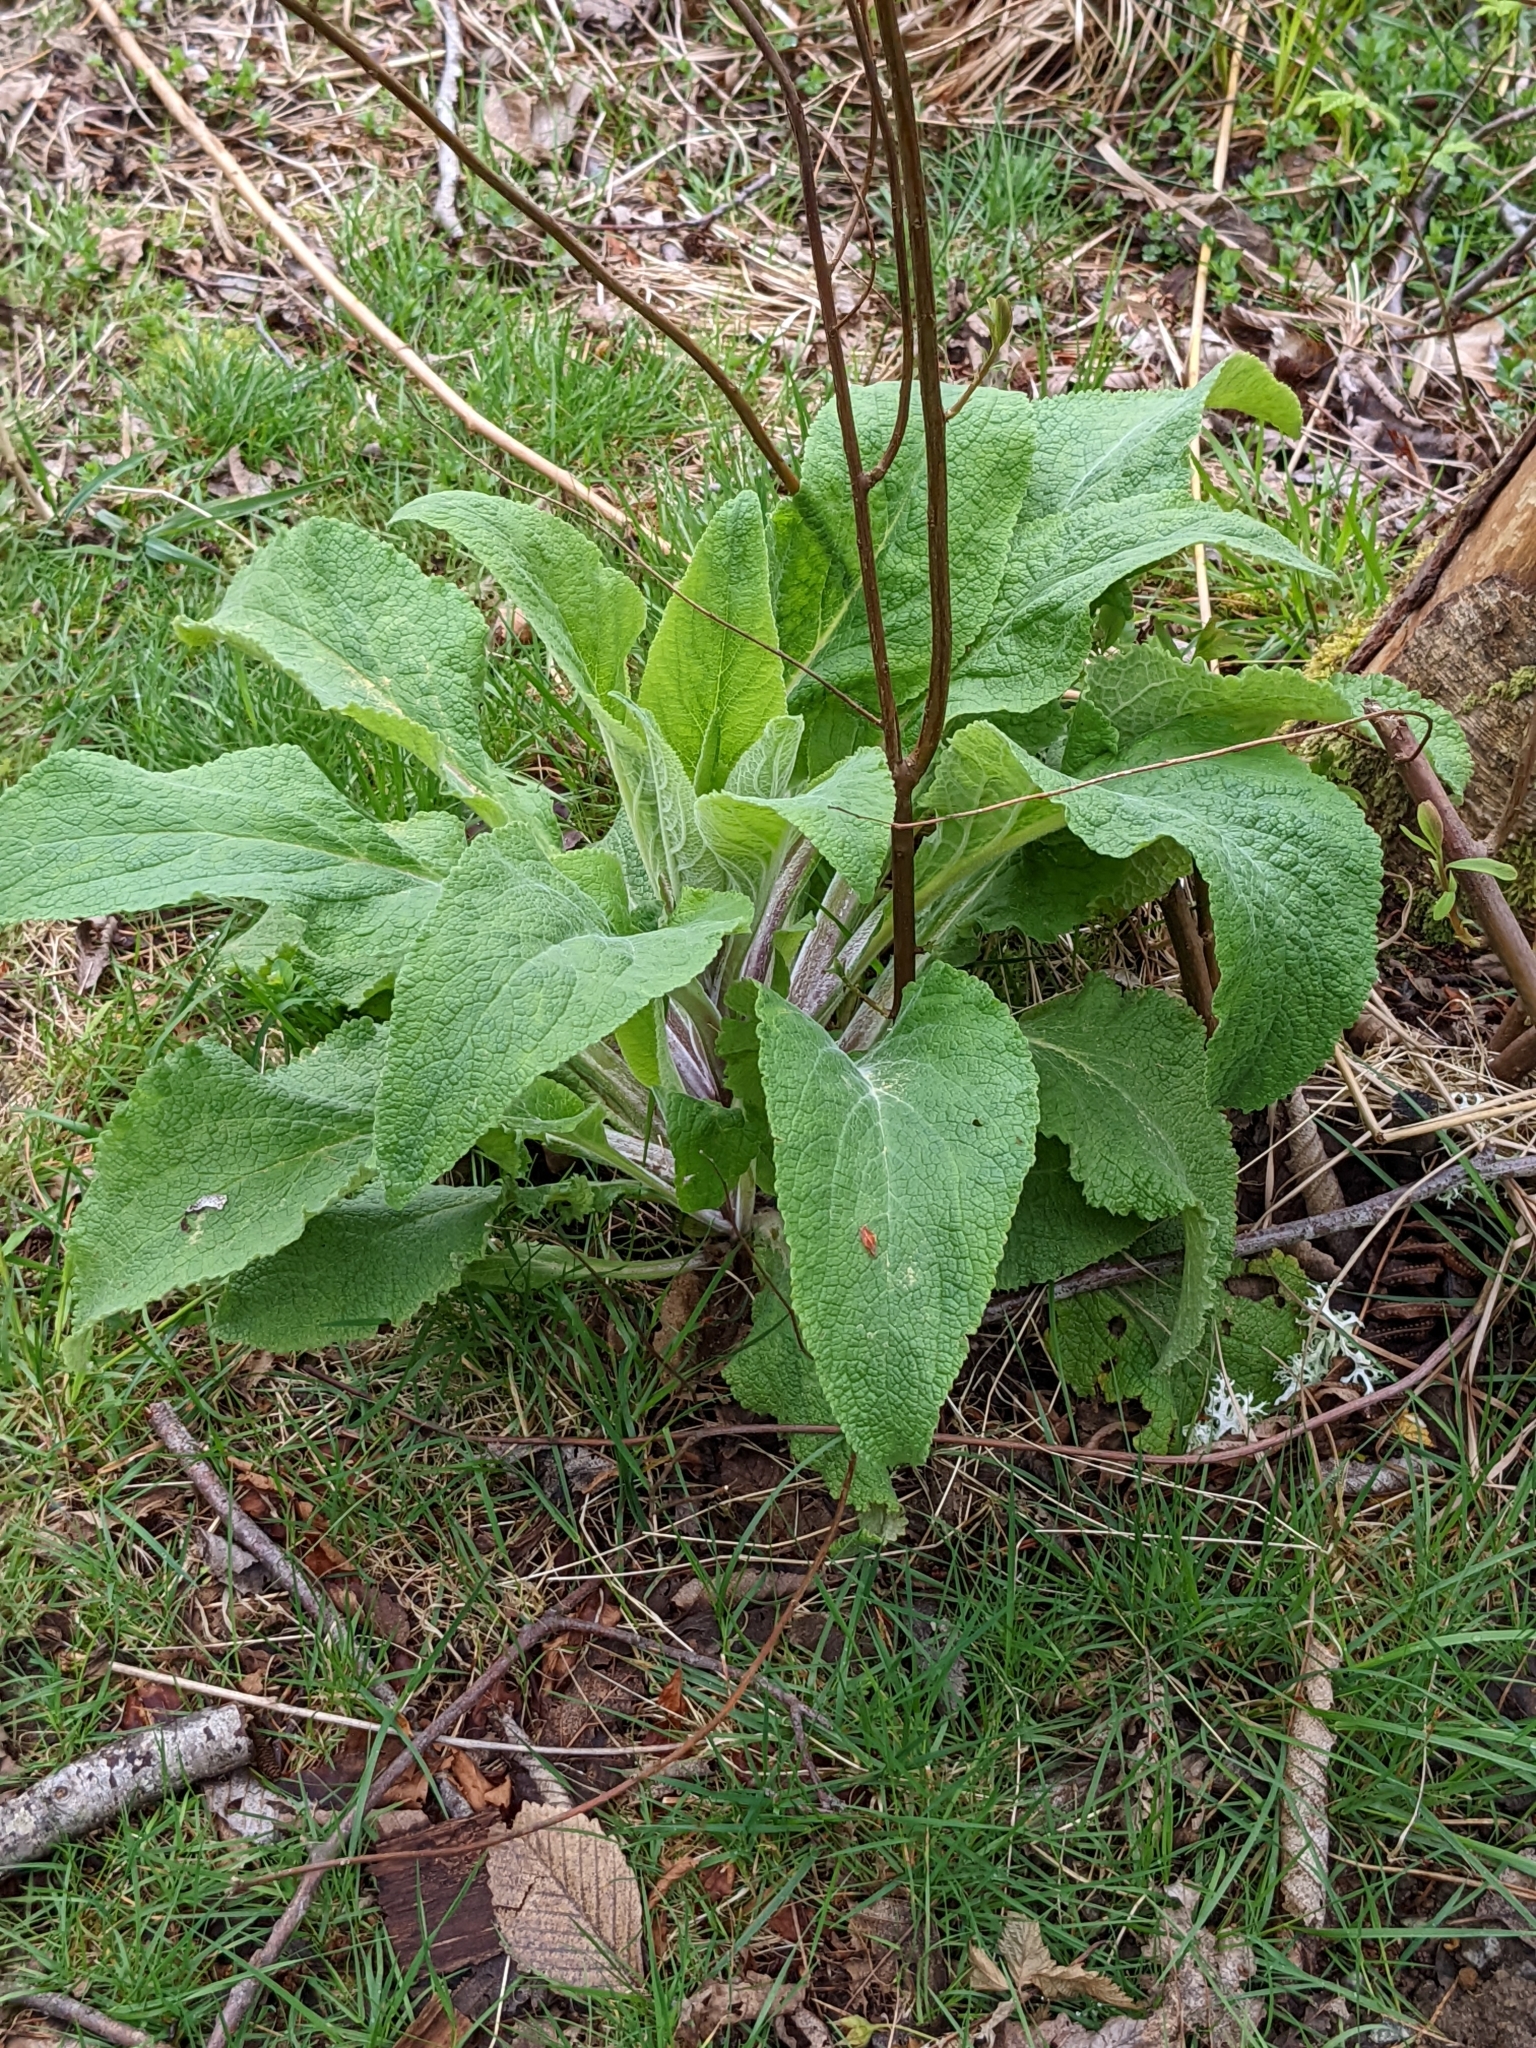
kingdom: Plantae
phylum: Tracheophyta
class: Magnoliopsida
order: Lamiales
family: Plantaginaceae
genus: Digitalis
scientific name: Digitalis purpurea
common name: Foxglove
